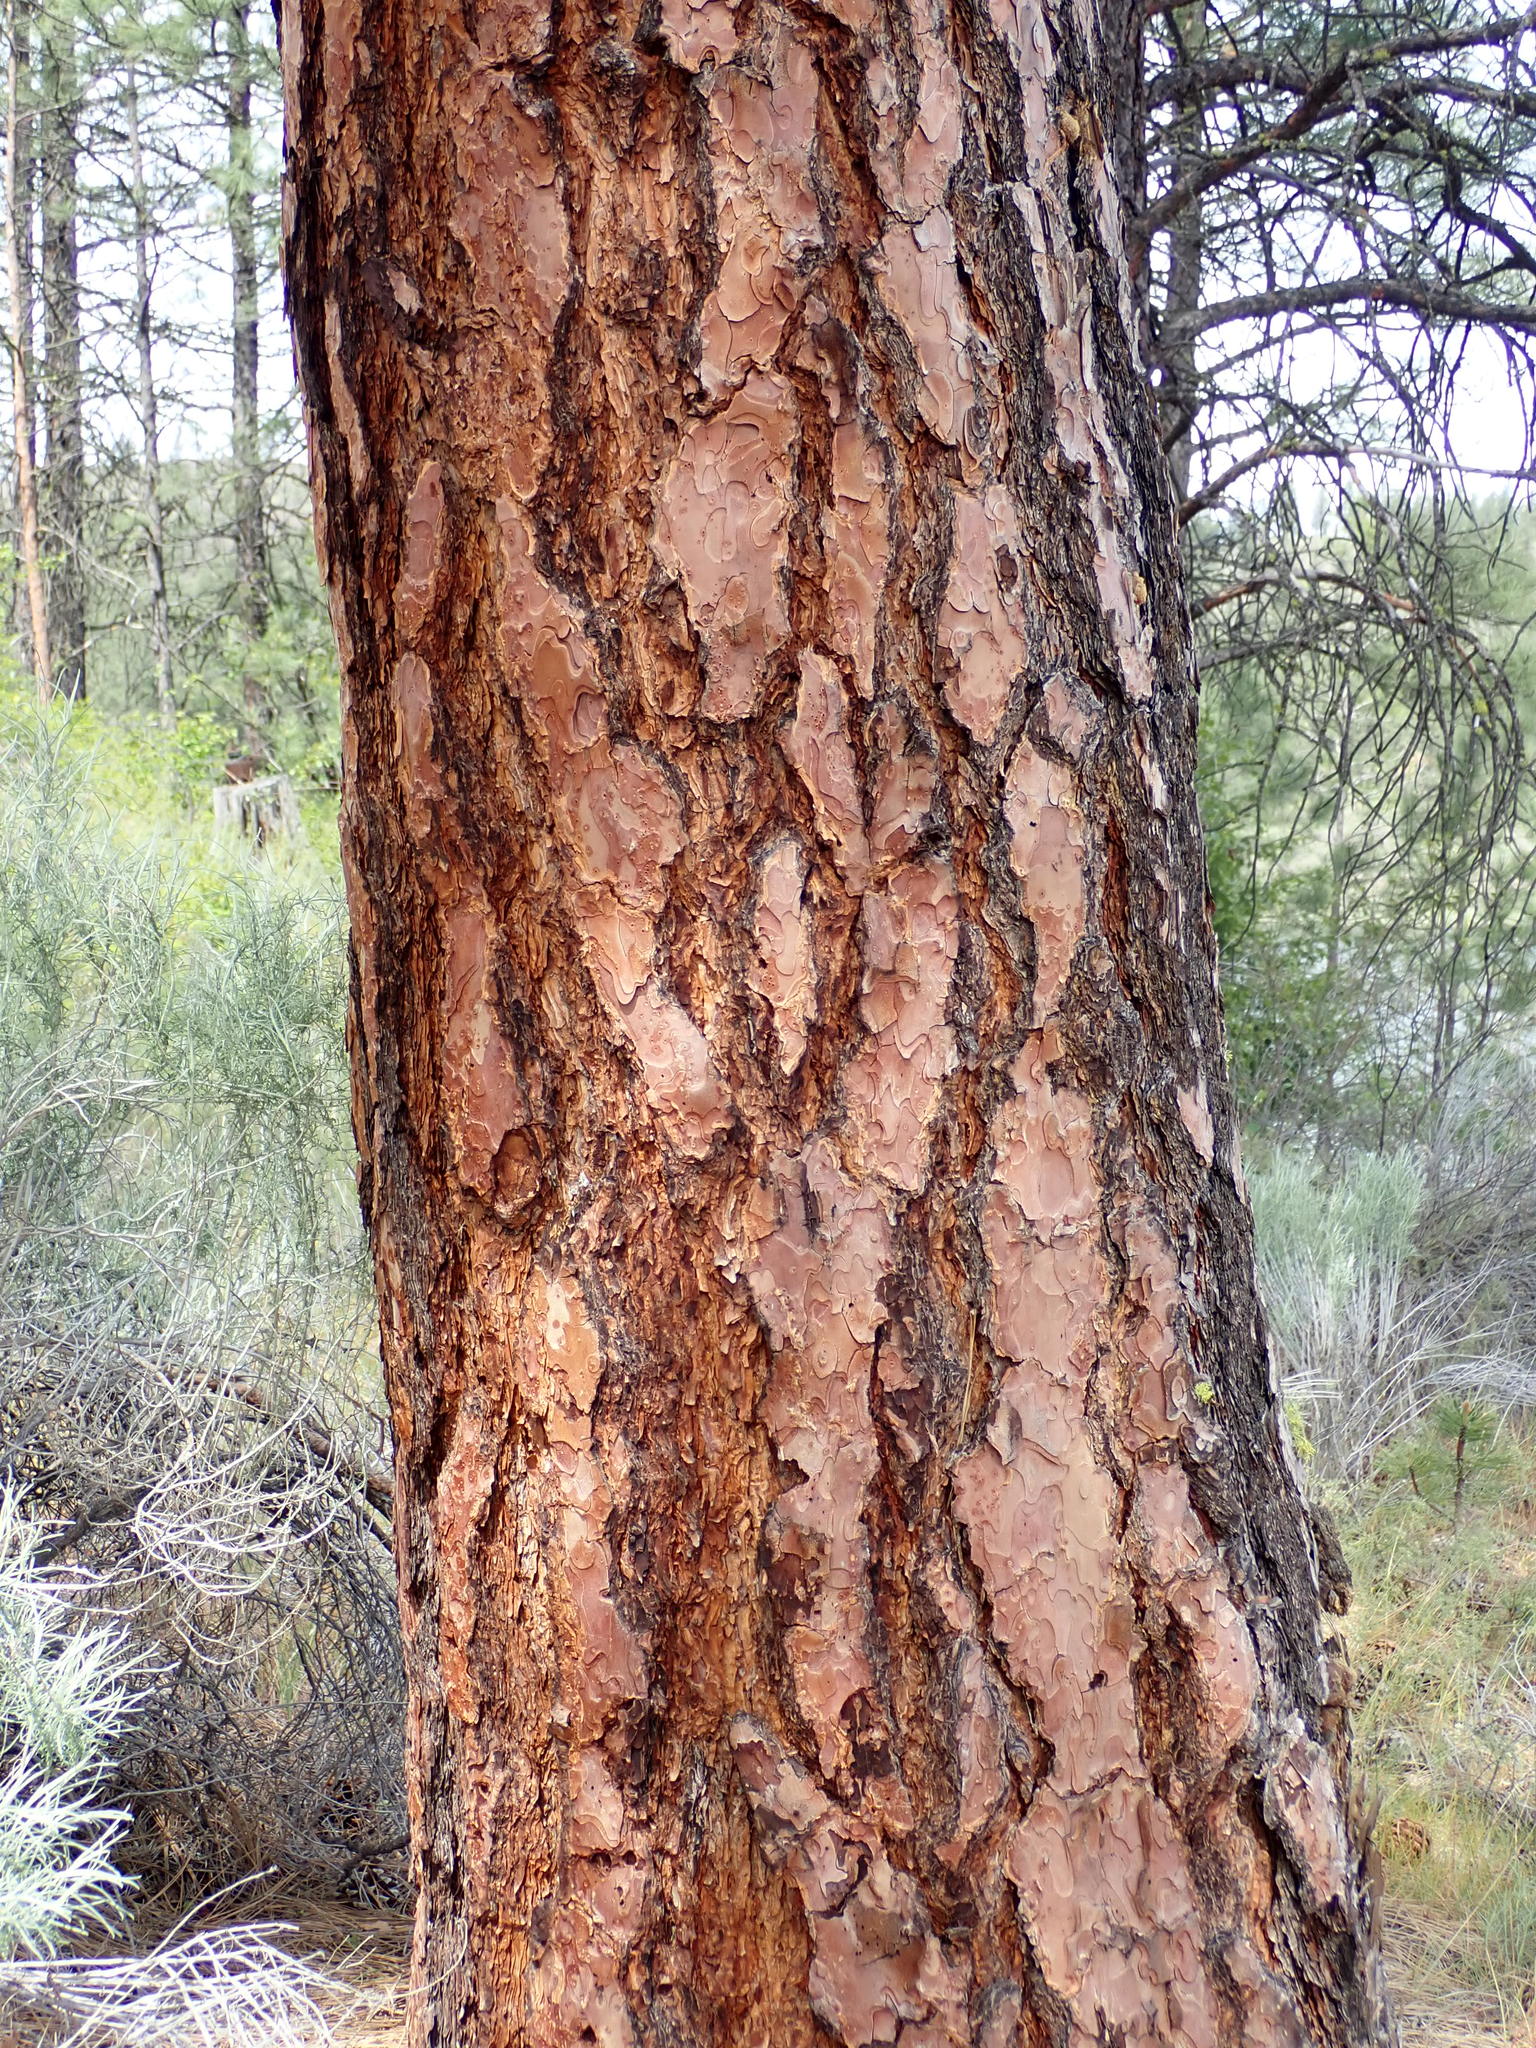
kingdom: Plantae
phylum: Tracheophyta
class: Pinopsida
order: Pinales
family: Pinaceae
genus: Pinus
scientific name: Pinus ponderosa
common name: Western yellow-pine
